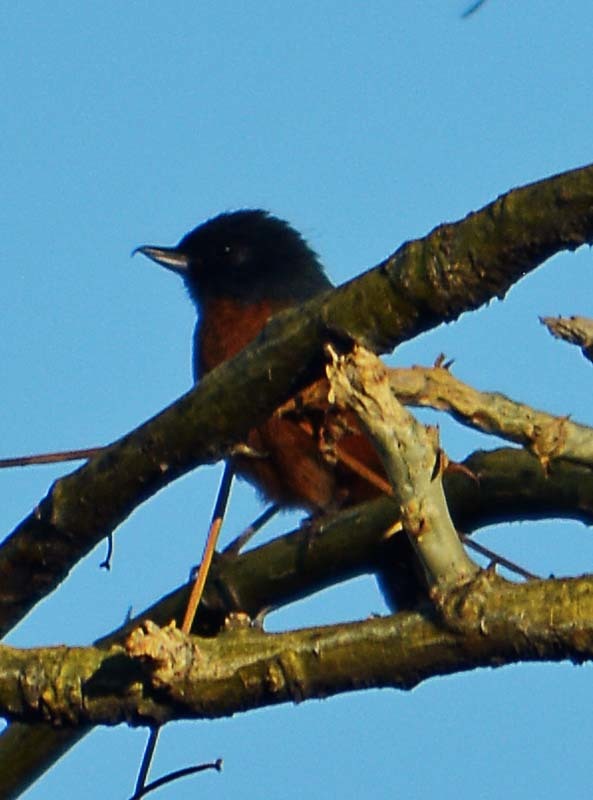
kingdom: Animalia
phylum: Chordata
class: Aves
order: Passeriformes
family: Thraupidae
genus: Diglossa
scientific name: Diglossa baritula
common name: Cinnamon-bellied flowerpiercer
